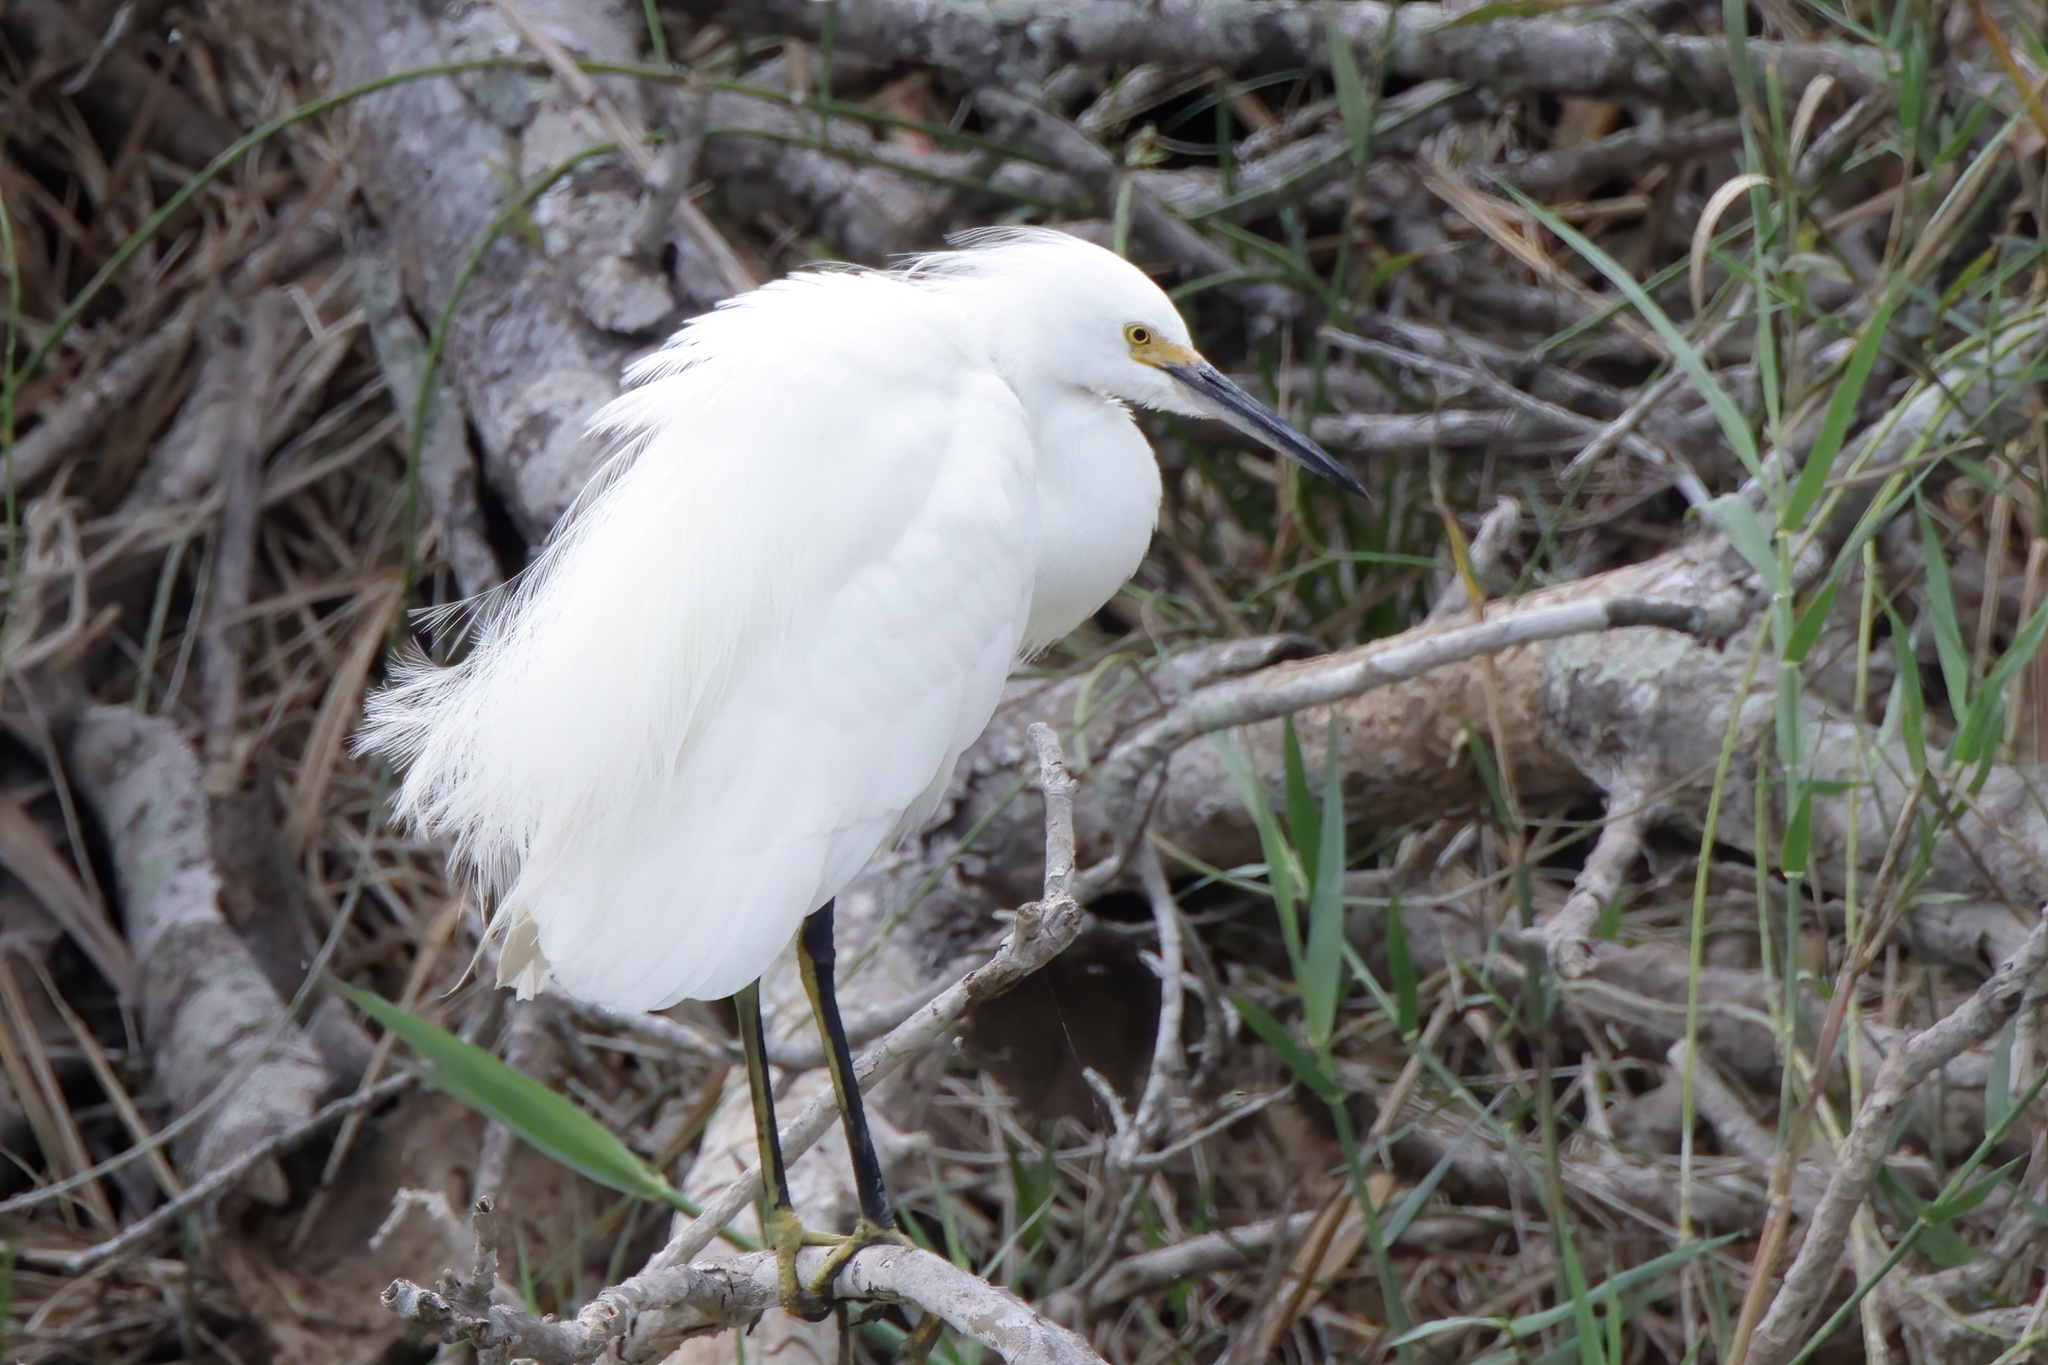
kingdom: Animalia
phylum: Chordata
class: Aves
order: Pelecaniformes
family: Ardeidae
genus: Egretta
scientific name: Egretta thula
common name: Snowy egret
